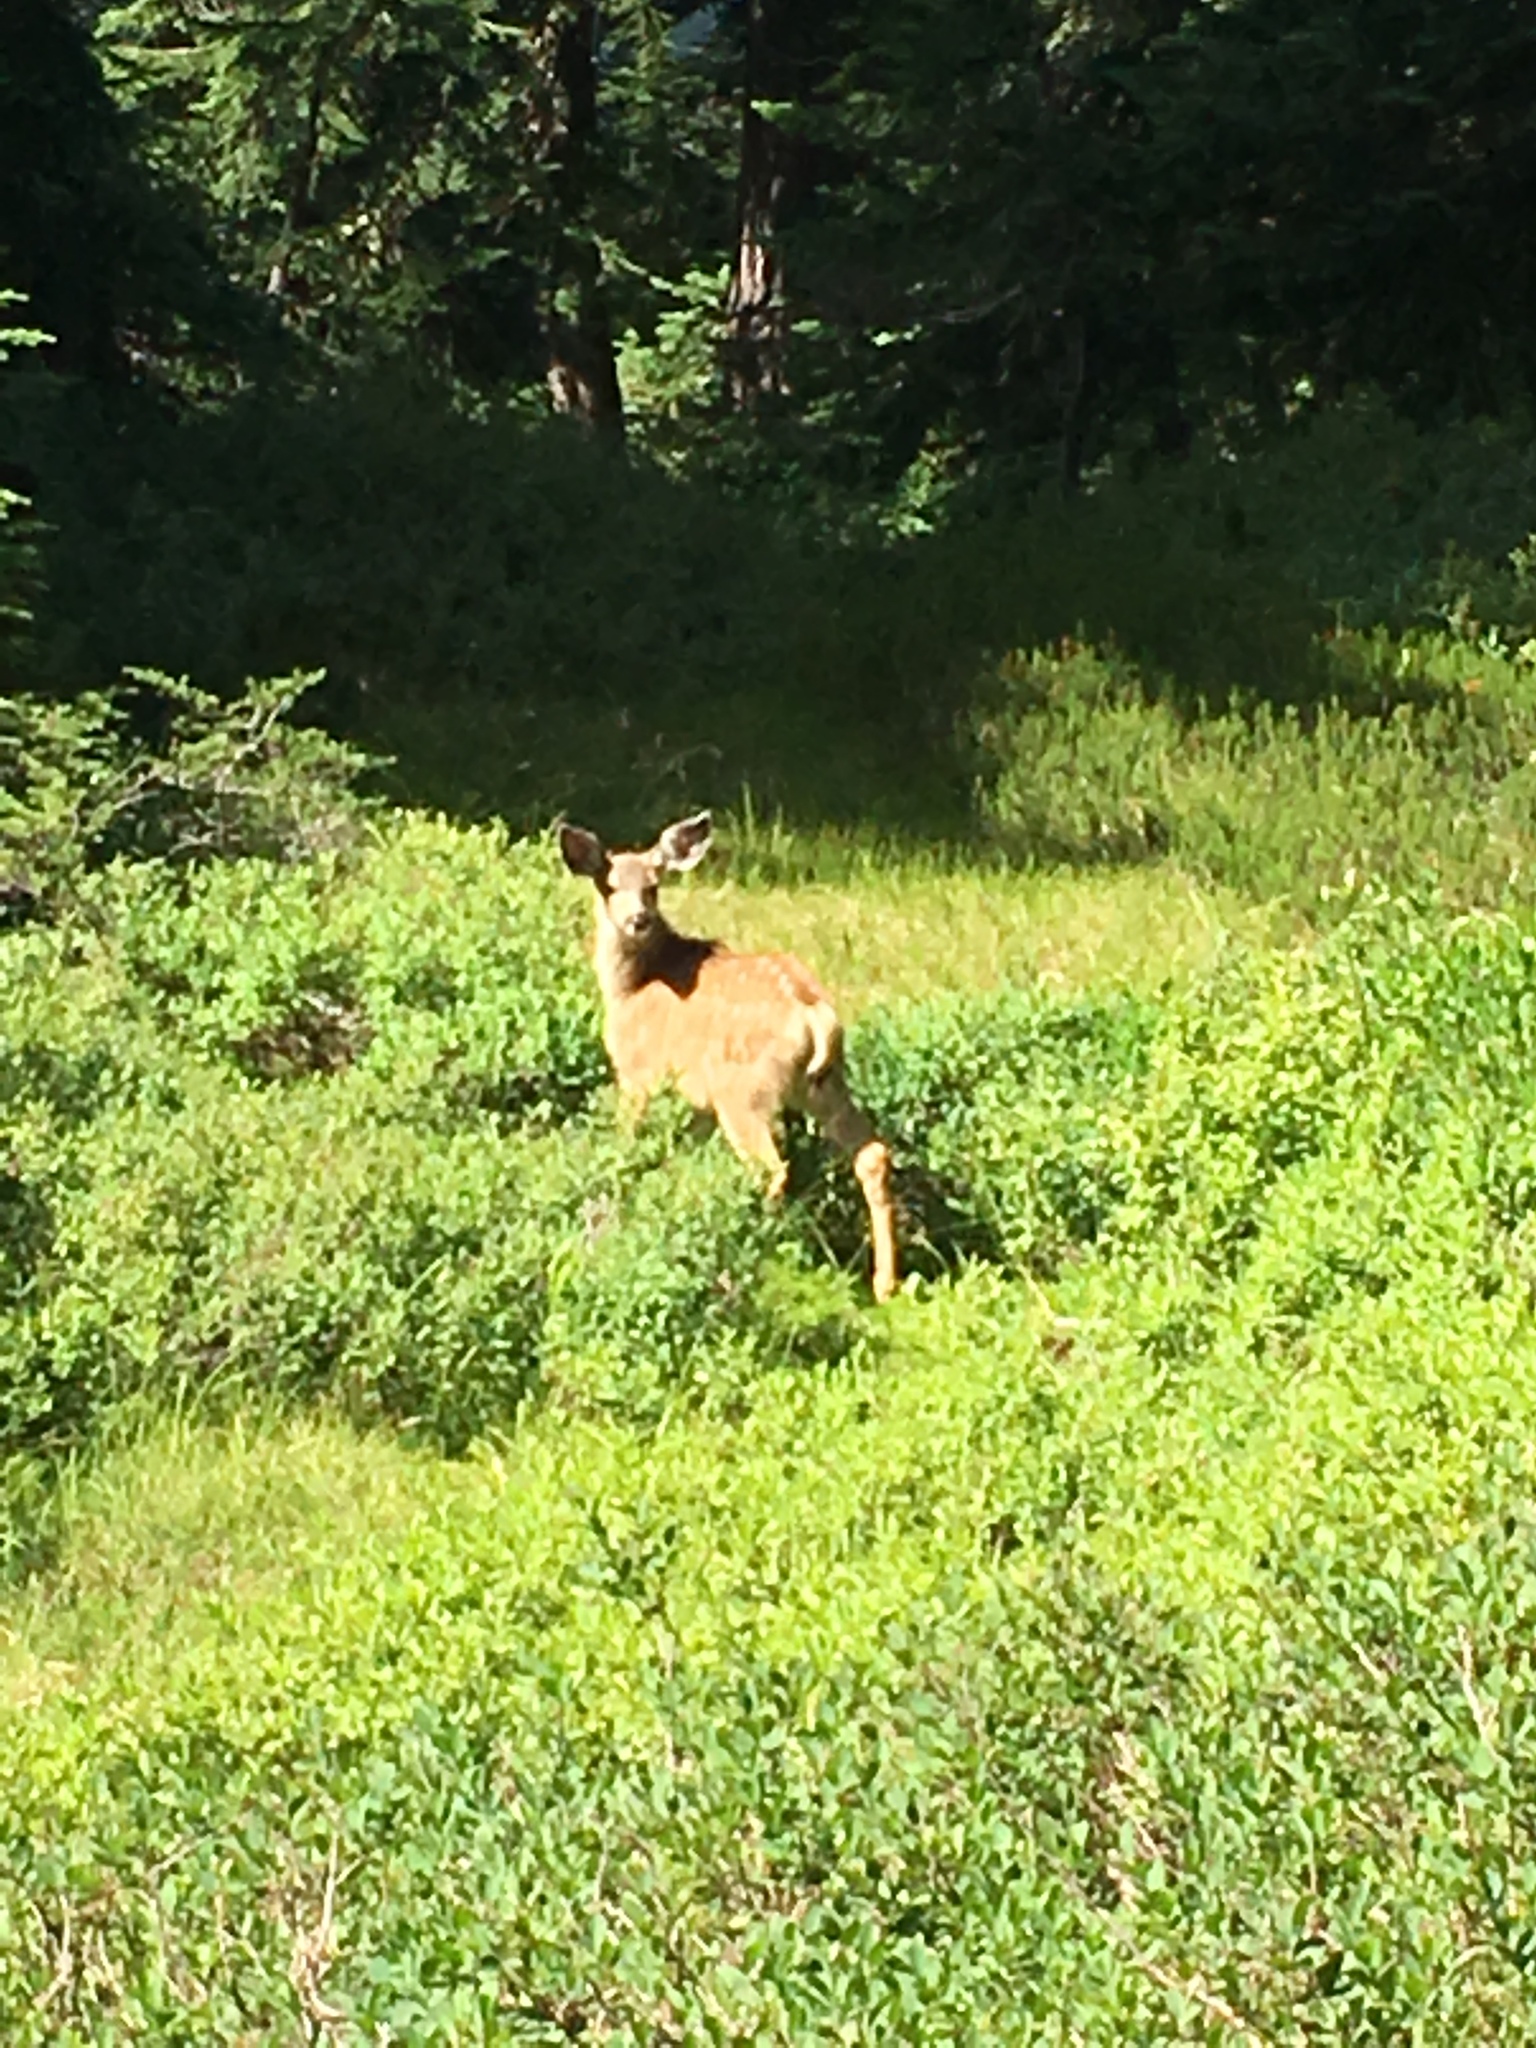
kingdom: Animalia
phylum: Chordata
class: Mammalia
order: Artiodactyla
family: Cervidae
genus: Odocoileus
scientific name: Odocoileus hemionus
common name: Mule deer
